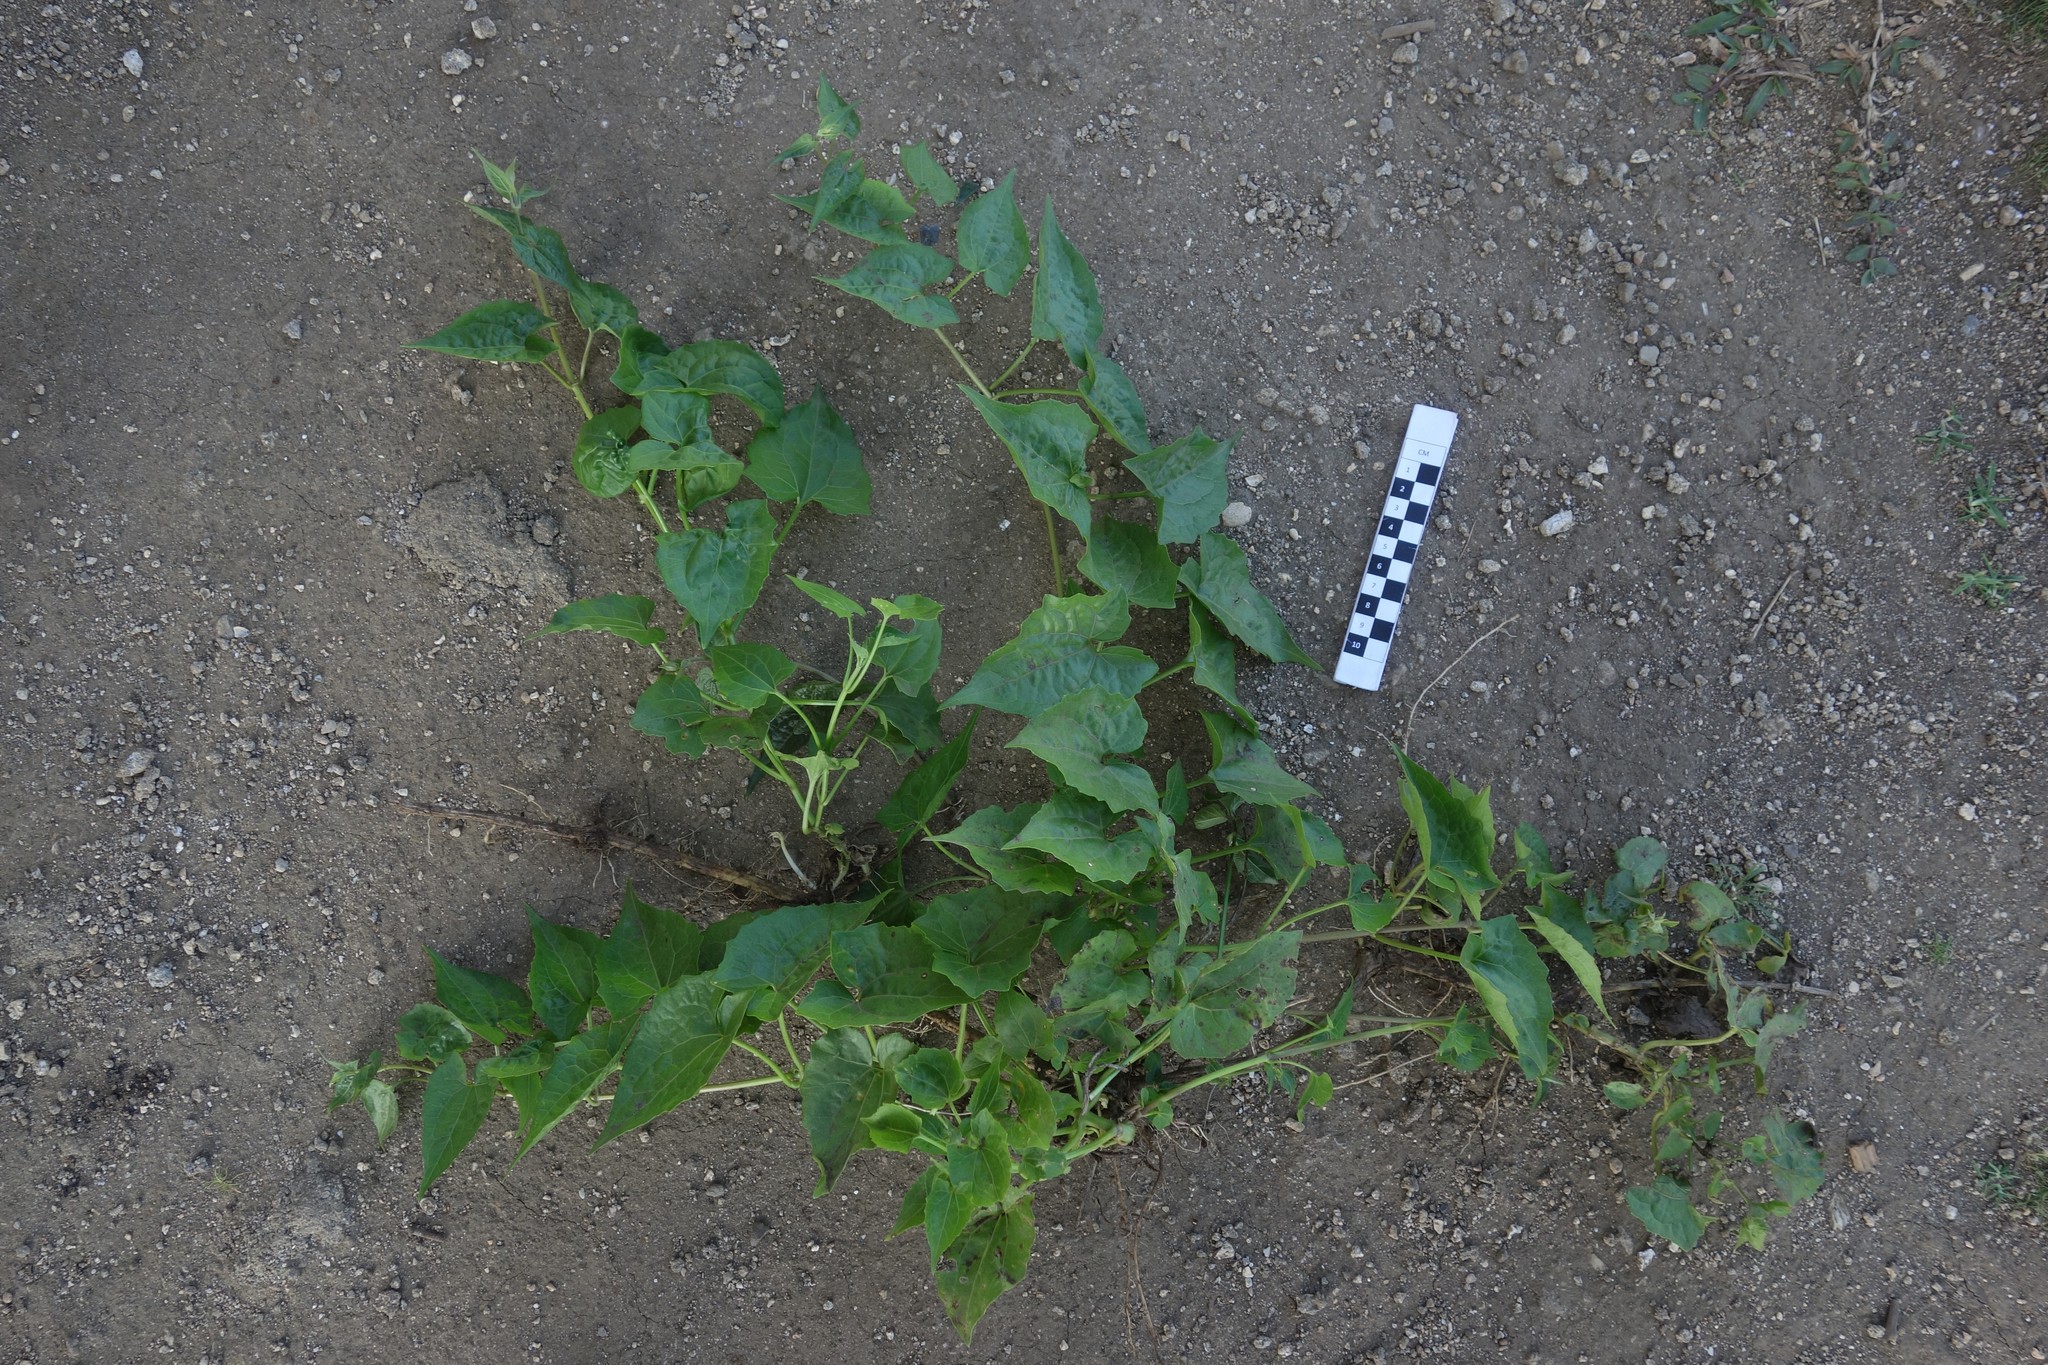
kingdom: Plantae
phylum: Tracheophyta
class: Magnoliopsida
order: Asterales
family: Asteraceae
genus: Mikania
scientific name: Mikania micrantha
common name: Mile-a-minute
